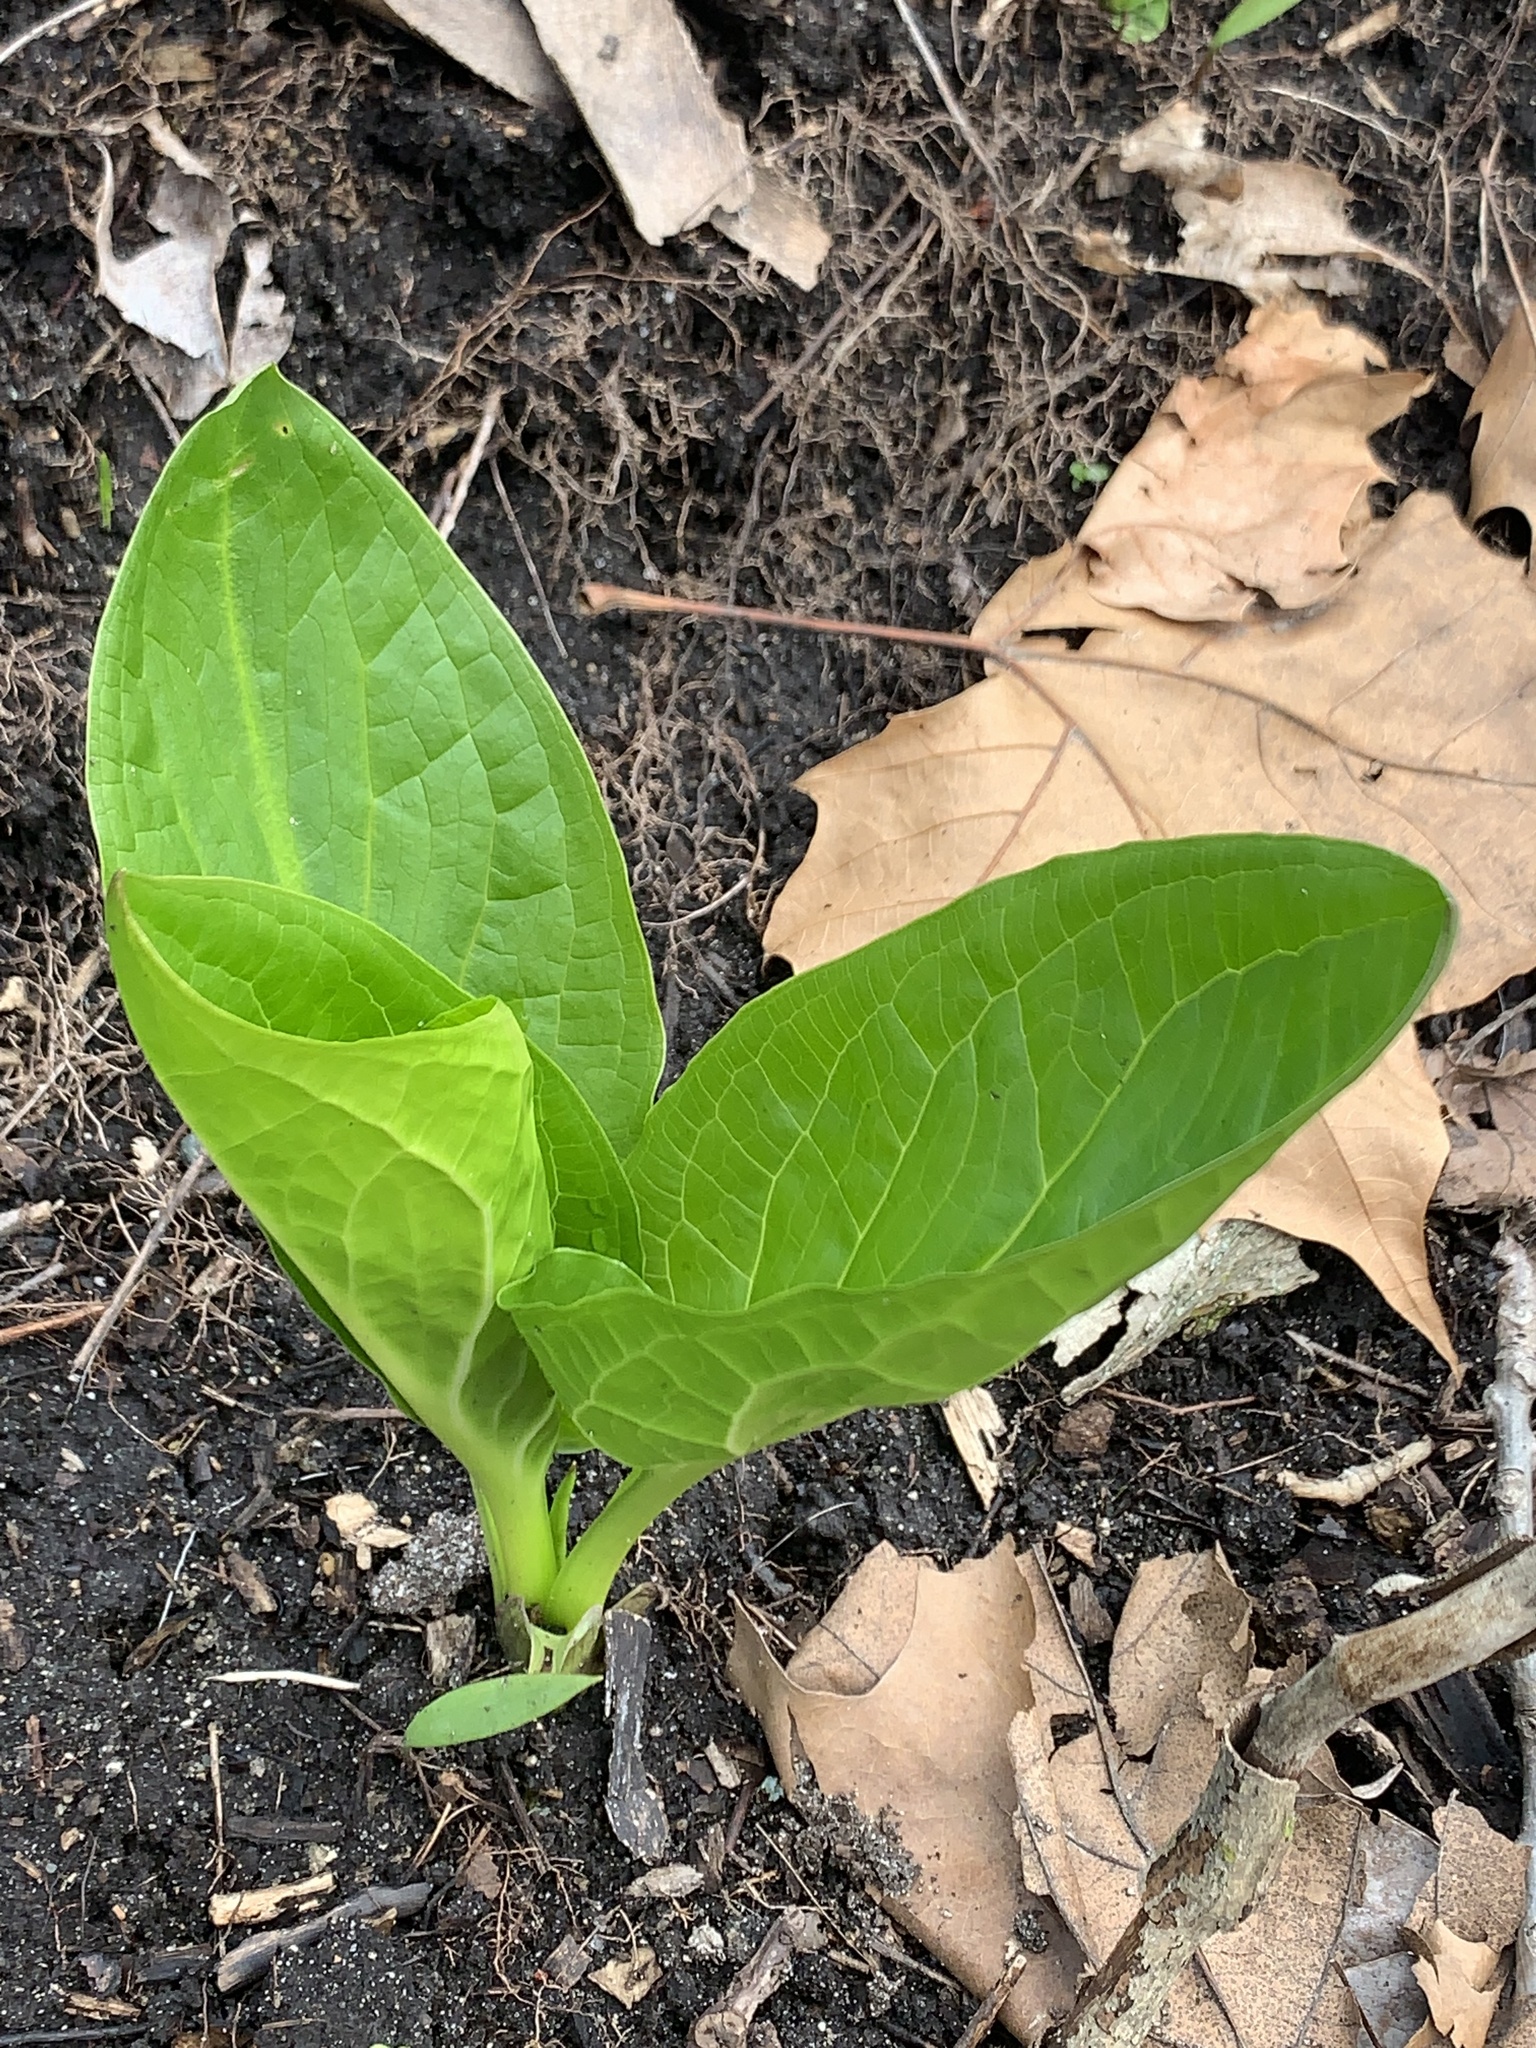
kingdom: Plantae
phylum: Tracheophyta
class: Liliopsida
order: Alismatales
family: Araceae
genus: Symplocarpus
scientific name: Symplocarpus foetidus
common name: Eastern skunk cabbage
